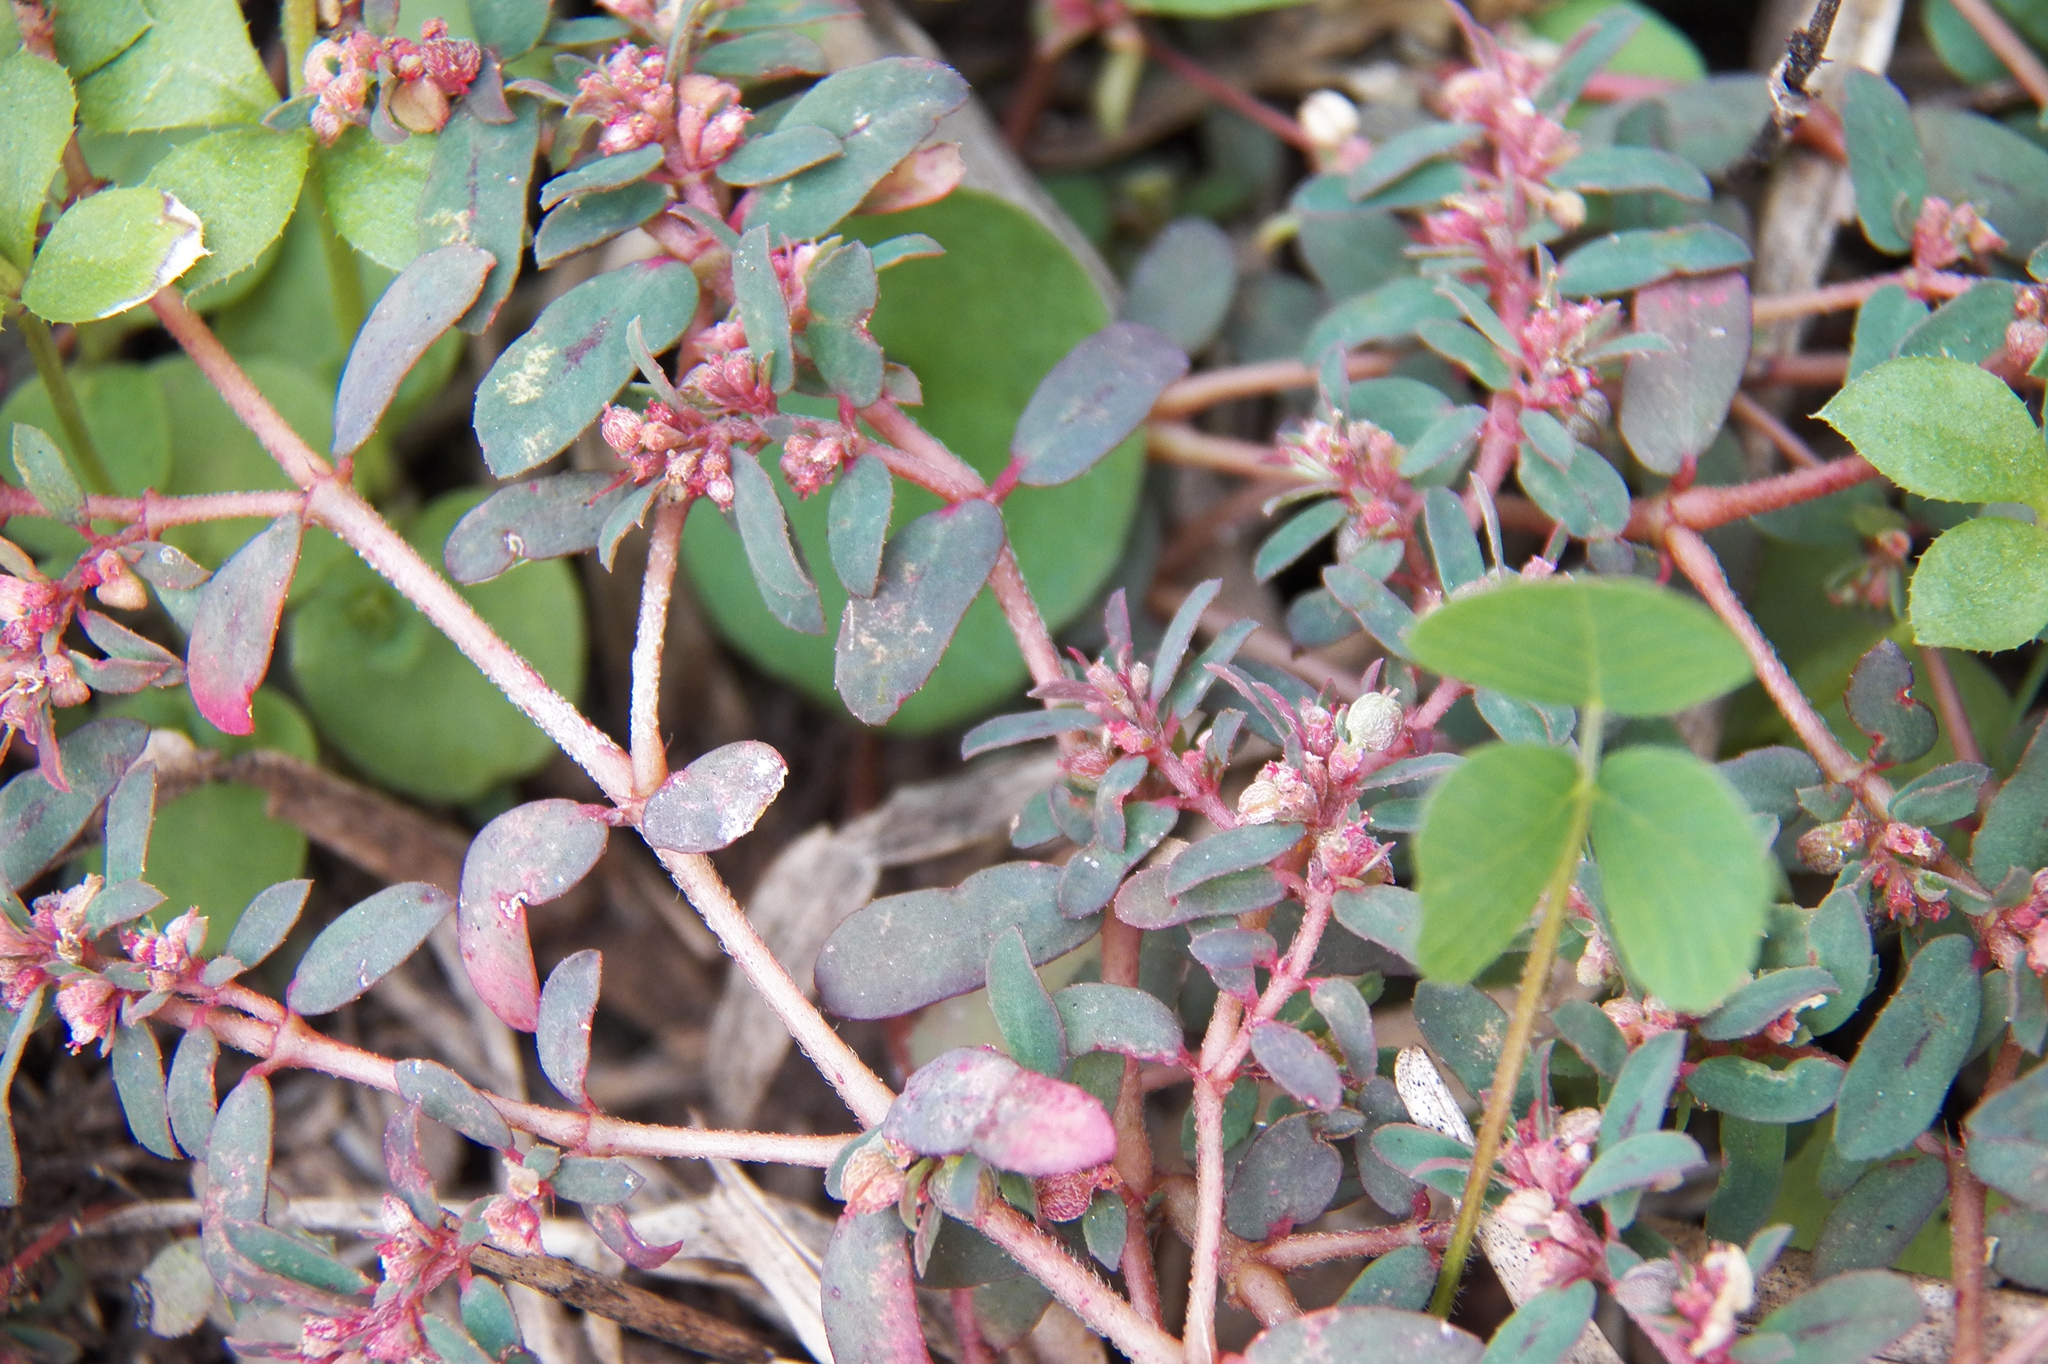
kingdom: Plantae
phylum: Tracheophyta
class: Magnoliopsida
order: Malpighiales
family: Euphorbiaceae
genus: Euphorbia
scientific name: Euphorbia maculata
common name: Spotted spurge
